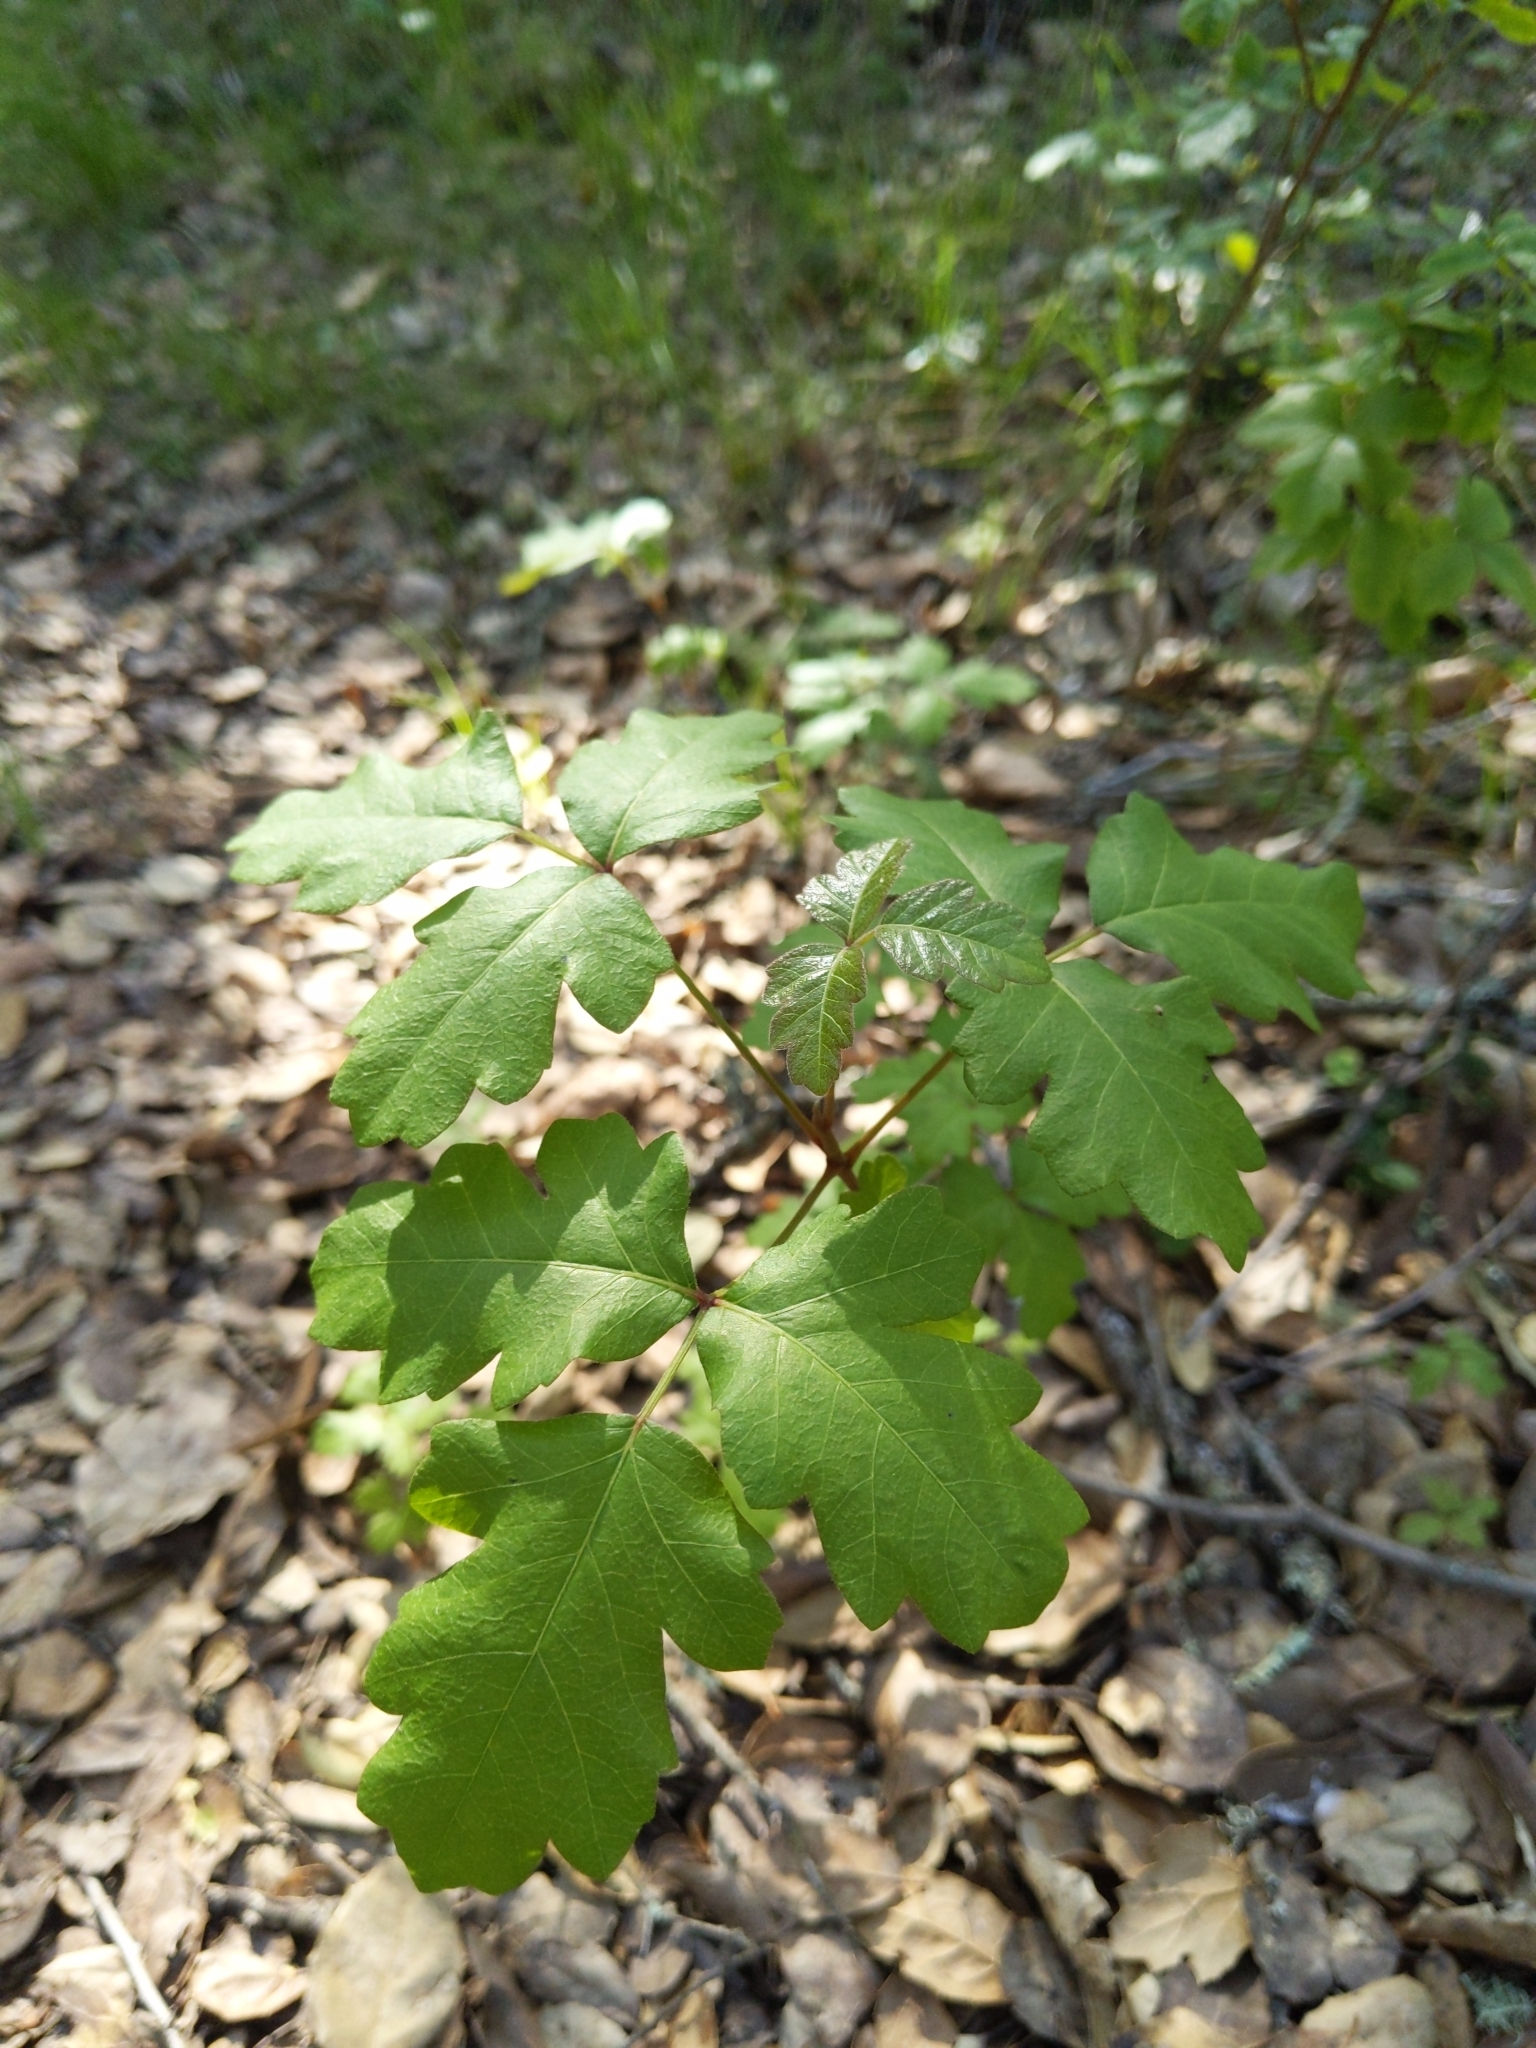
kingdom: Plantae
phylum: Tracheophyta
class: Magnoliopsida
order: Sapindales
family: Anacardiaceae
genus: Toxicodendron
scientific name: Toxicodendron diversilobum
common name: Pacific poison-oak
